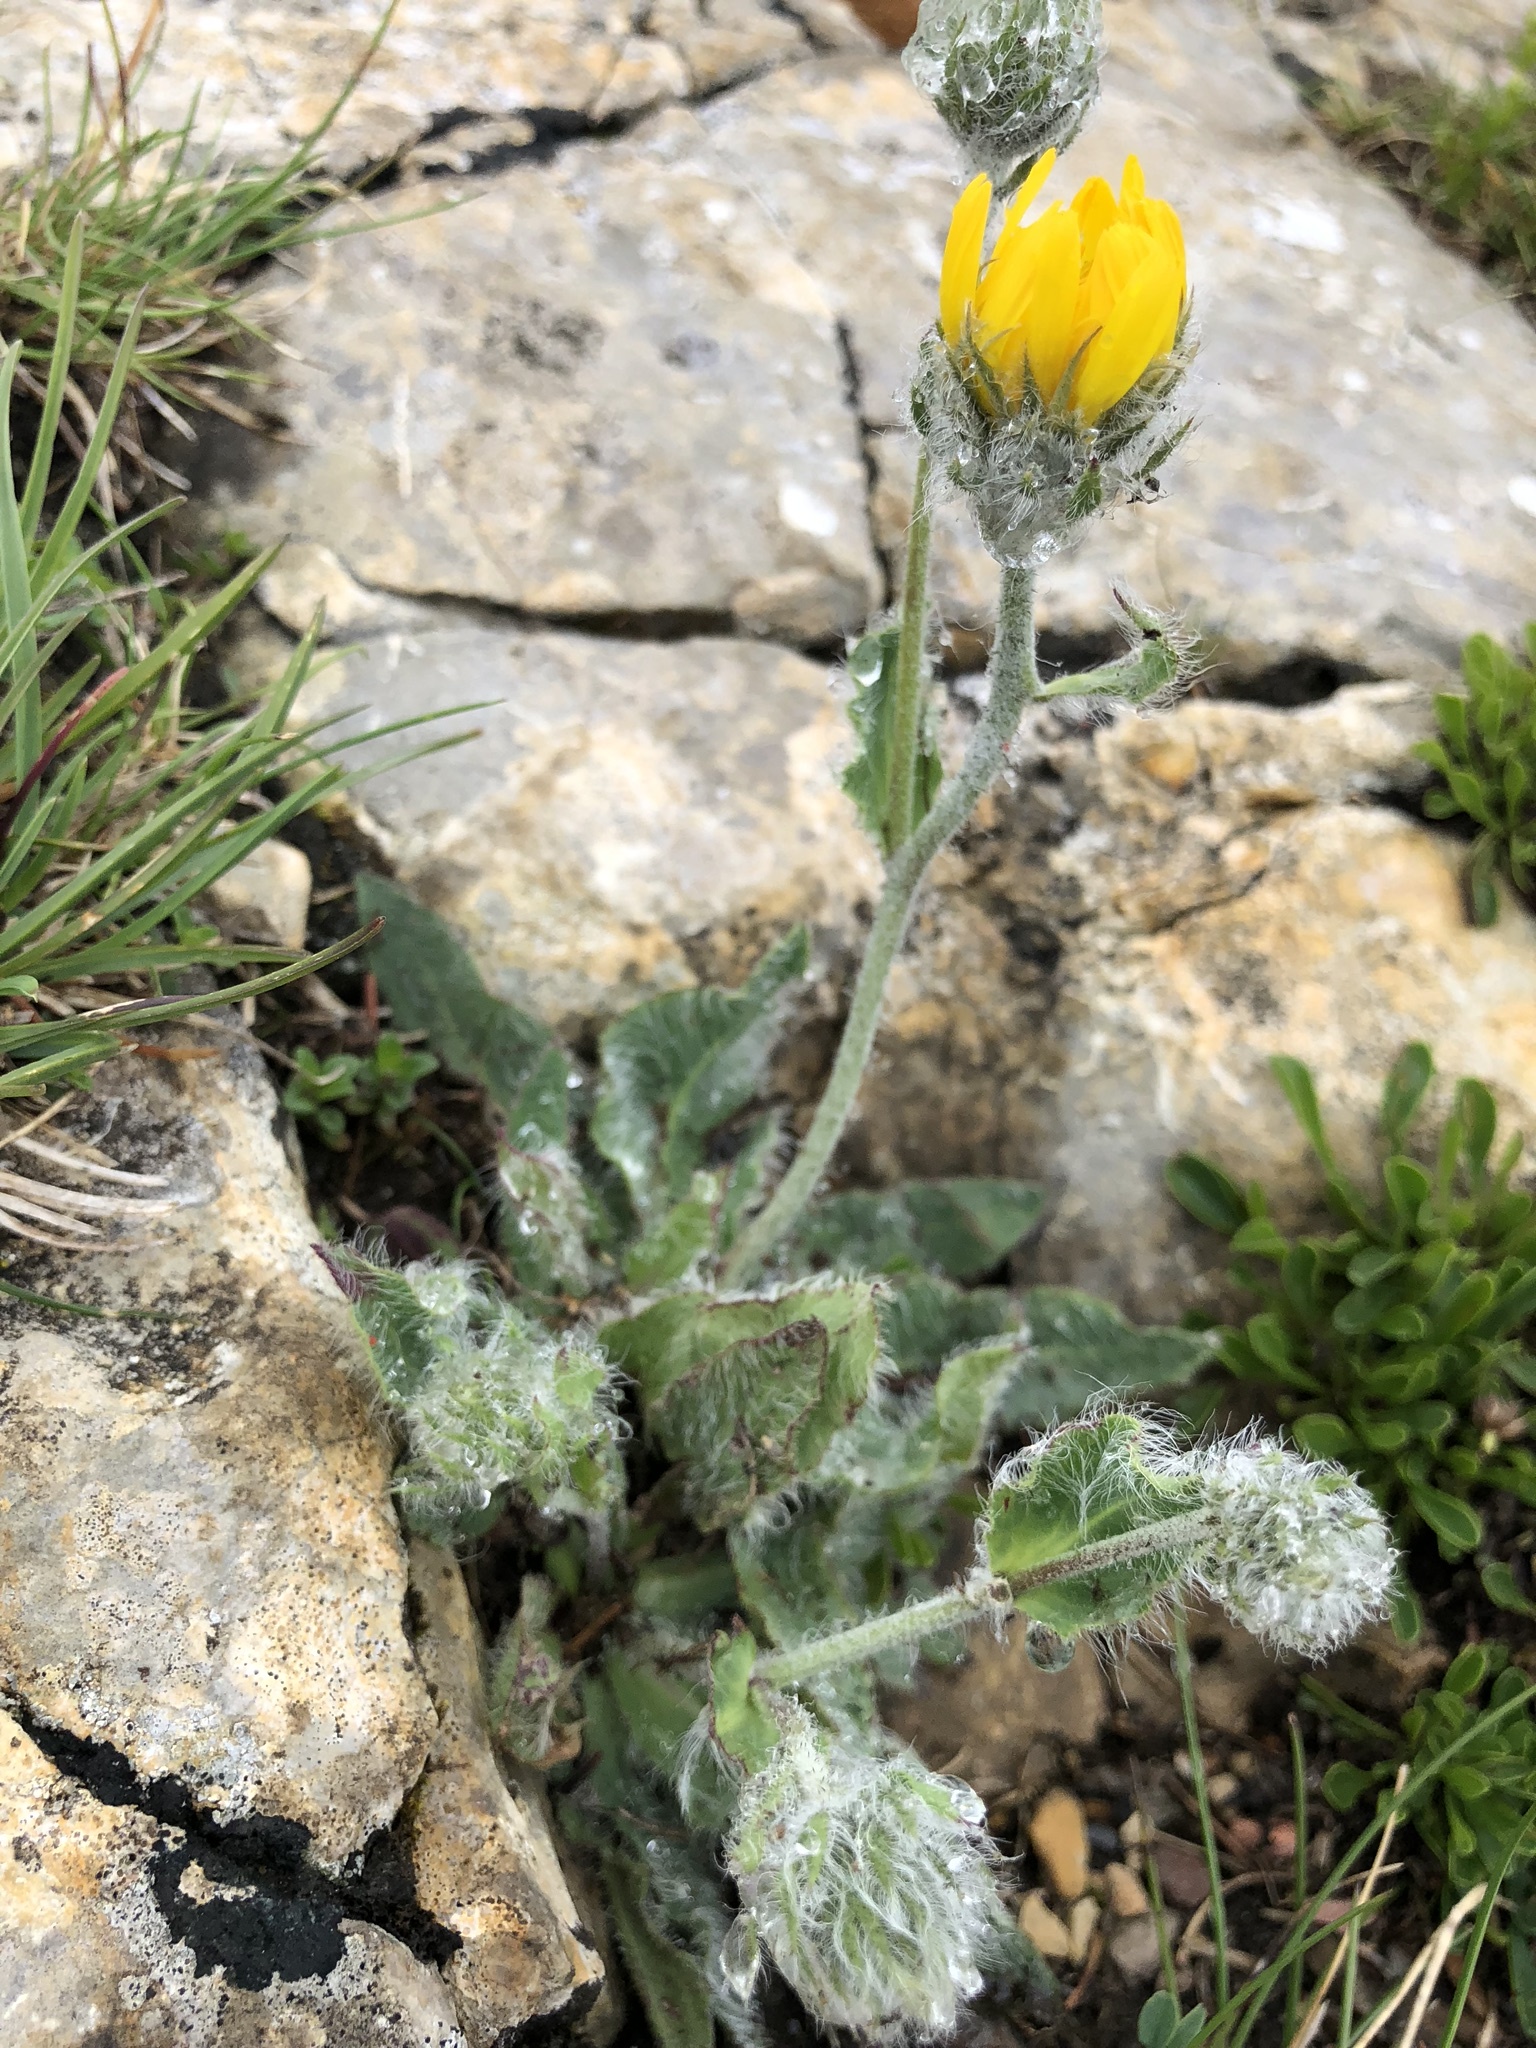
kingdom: Plantae
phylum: Tracheophyta
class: Magnoliopsida
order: Asterales
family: Asteraceae
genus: Hieracium
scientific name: Hieracium villosum
